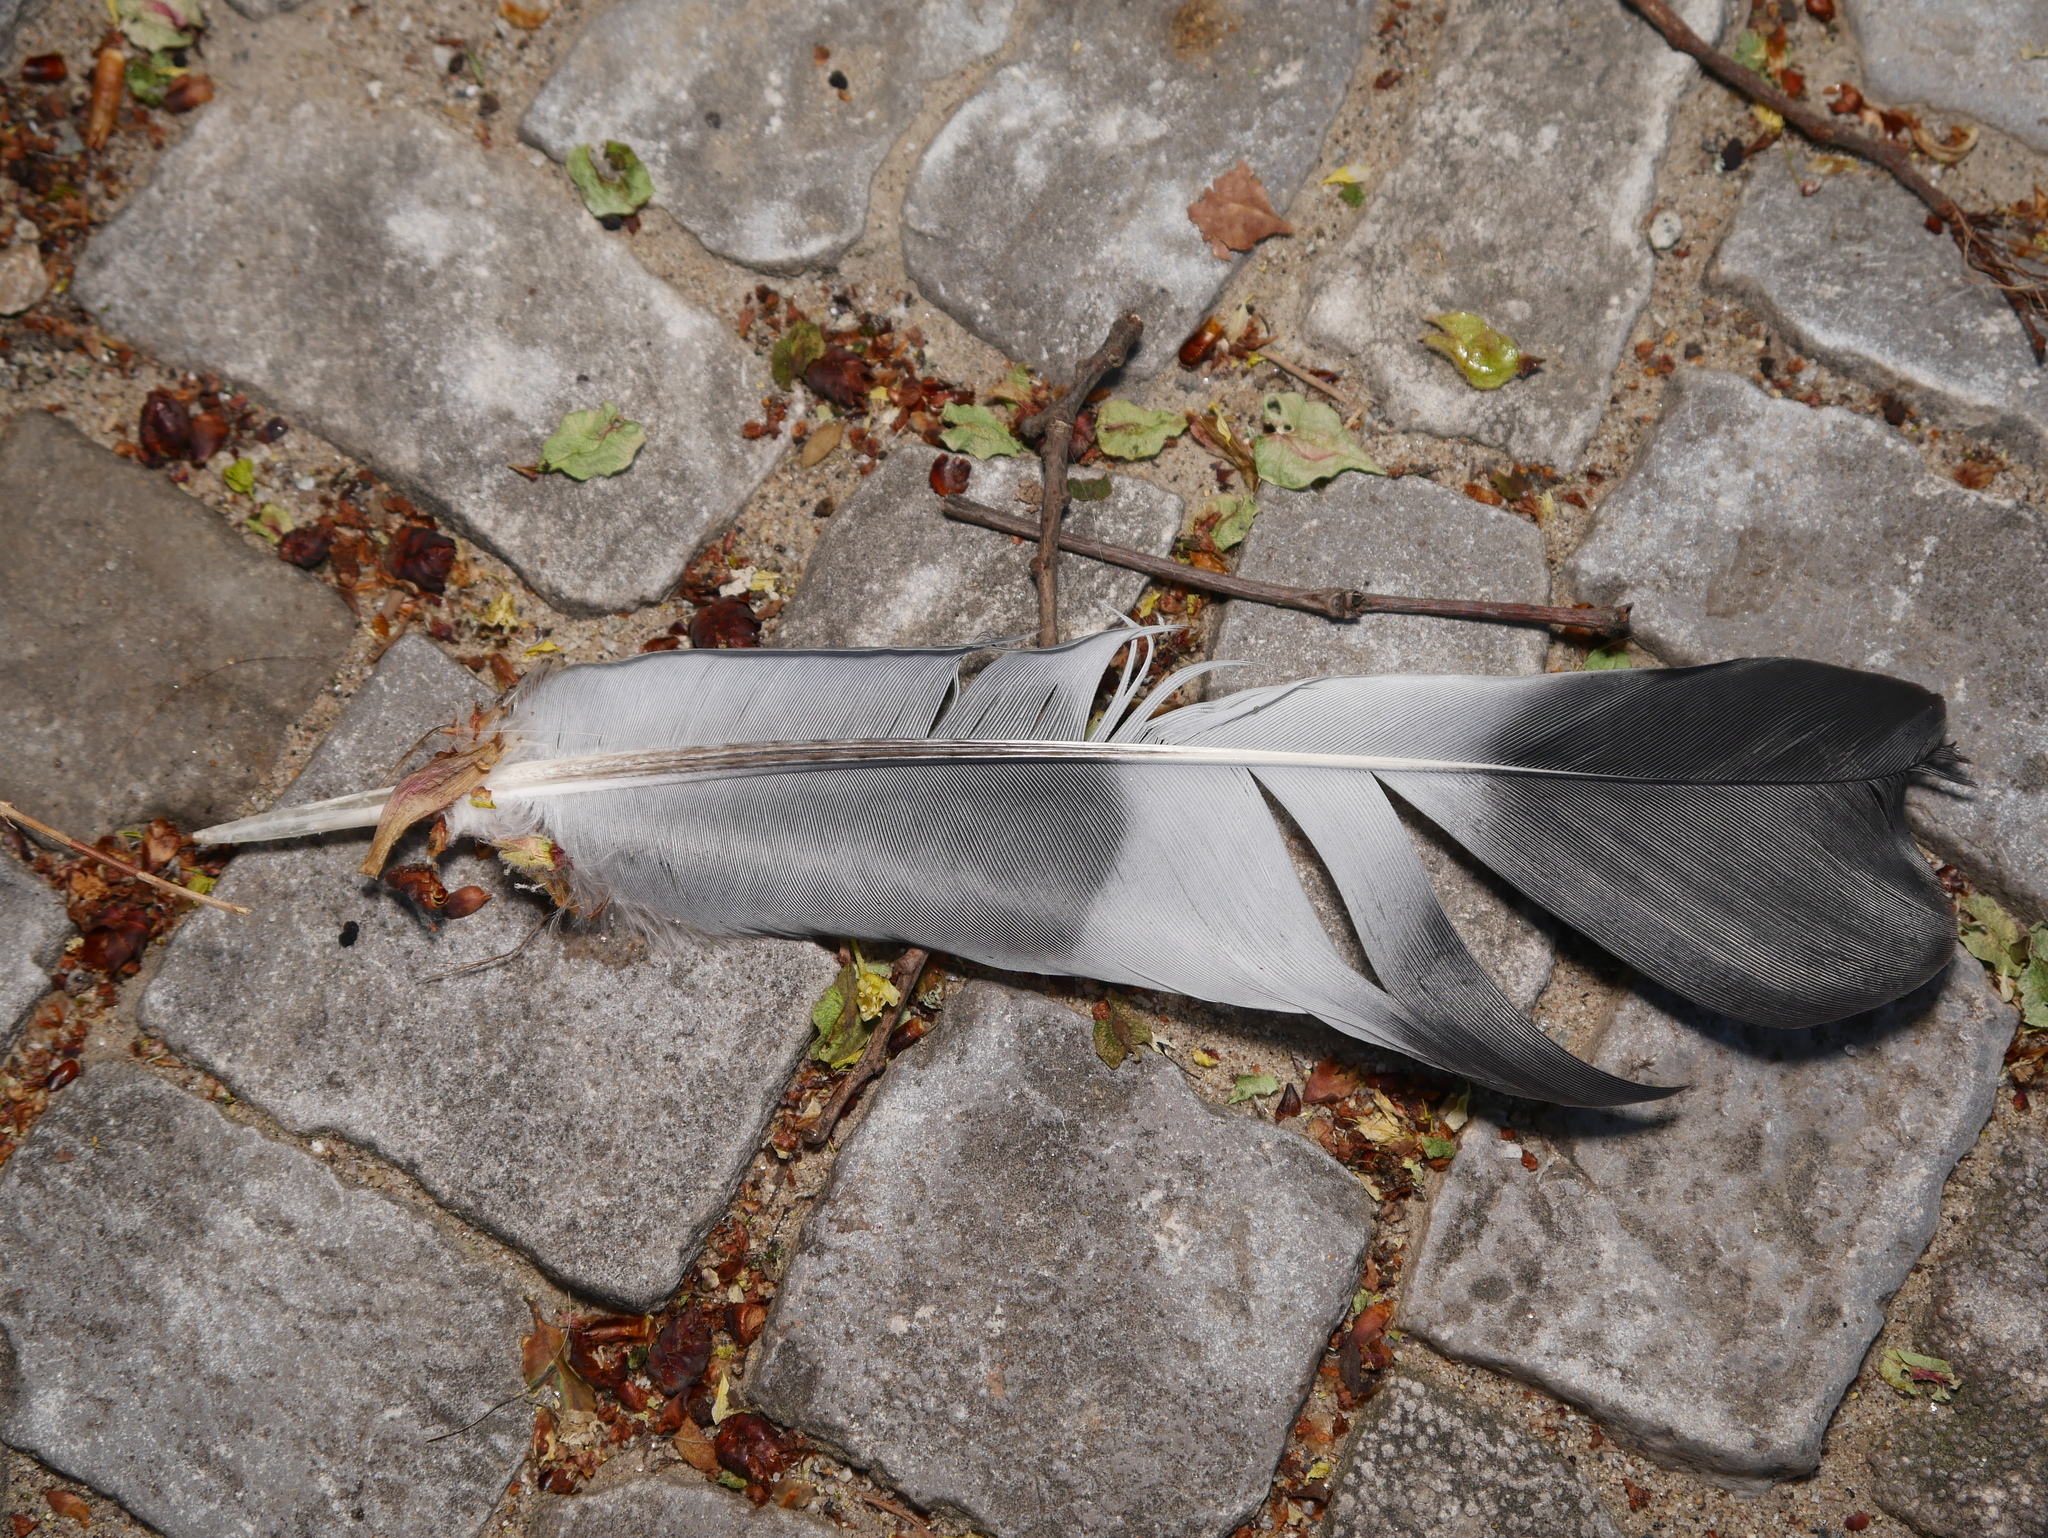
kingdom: Animalia
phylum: Chordata
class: Aves
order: Columbiformes
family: Columbidae
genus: Columba
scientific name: Columba palumbus
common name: Common wood pigeon
